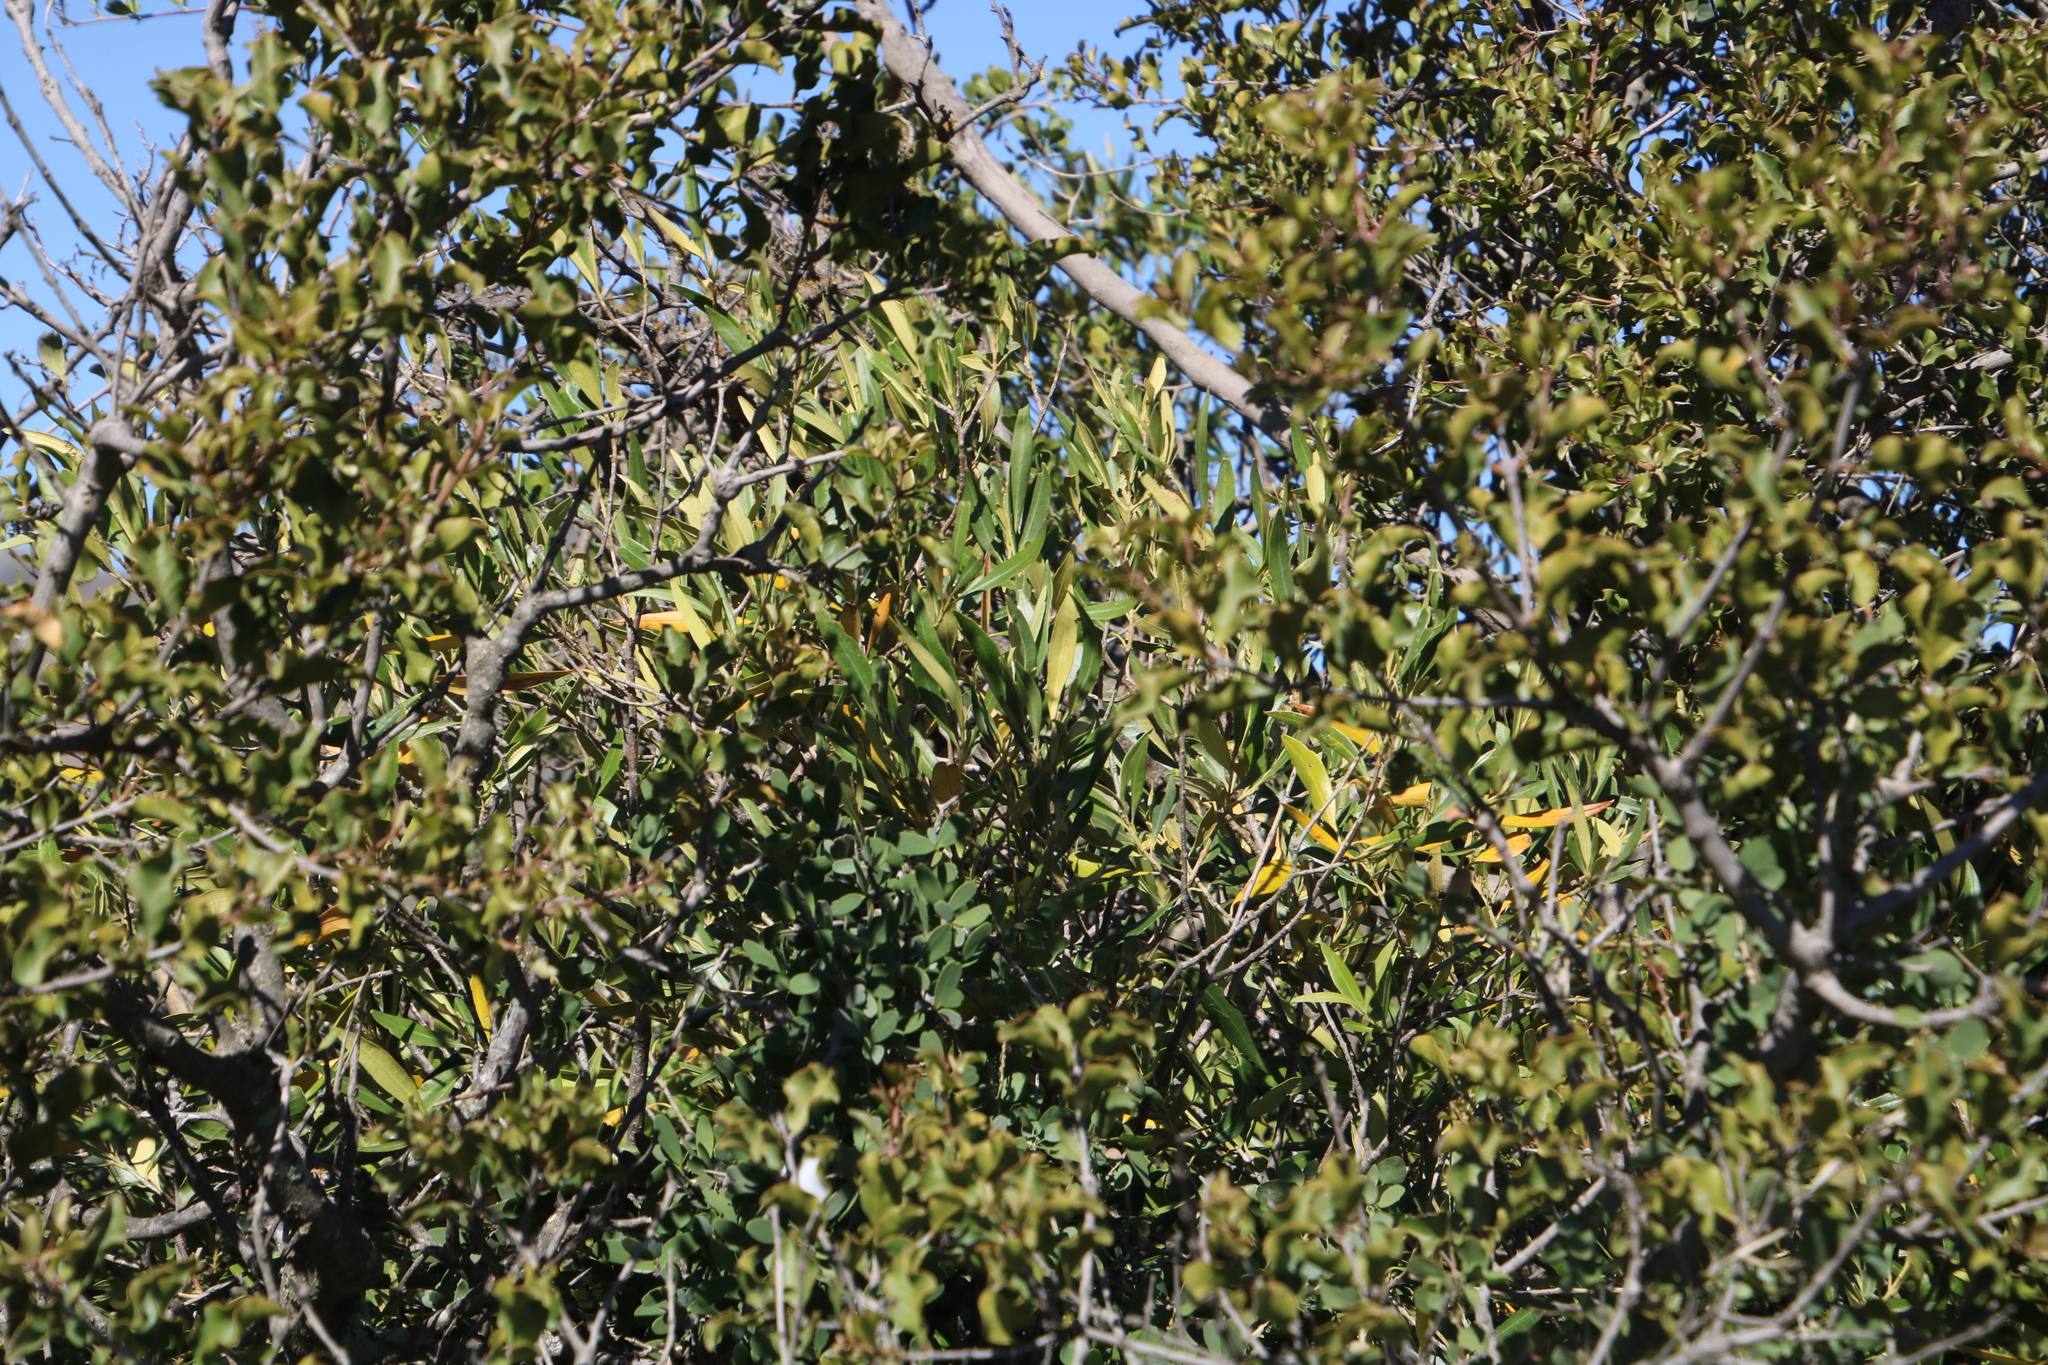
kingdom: Plantae
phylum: Tracheophyta
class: Magnoliopsida
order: Lamiales
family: Oleaceae
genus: Olea
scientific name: Olea europaea
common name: Olive
